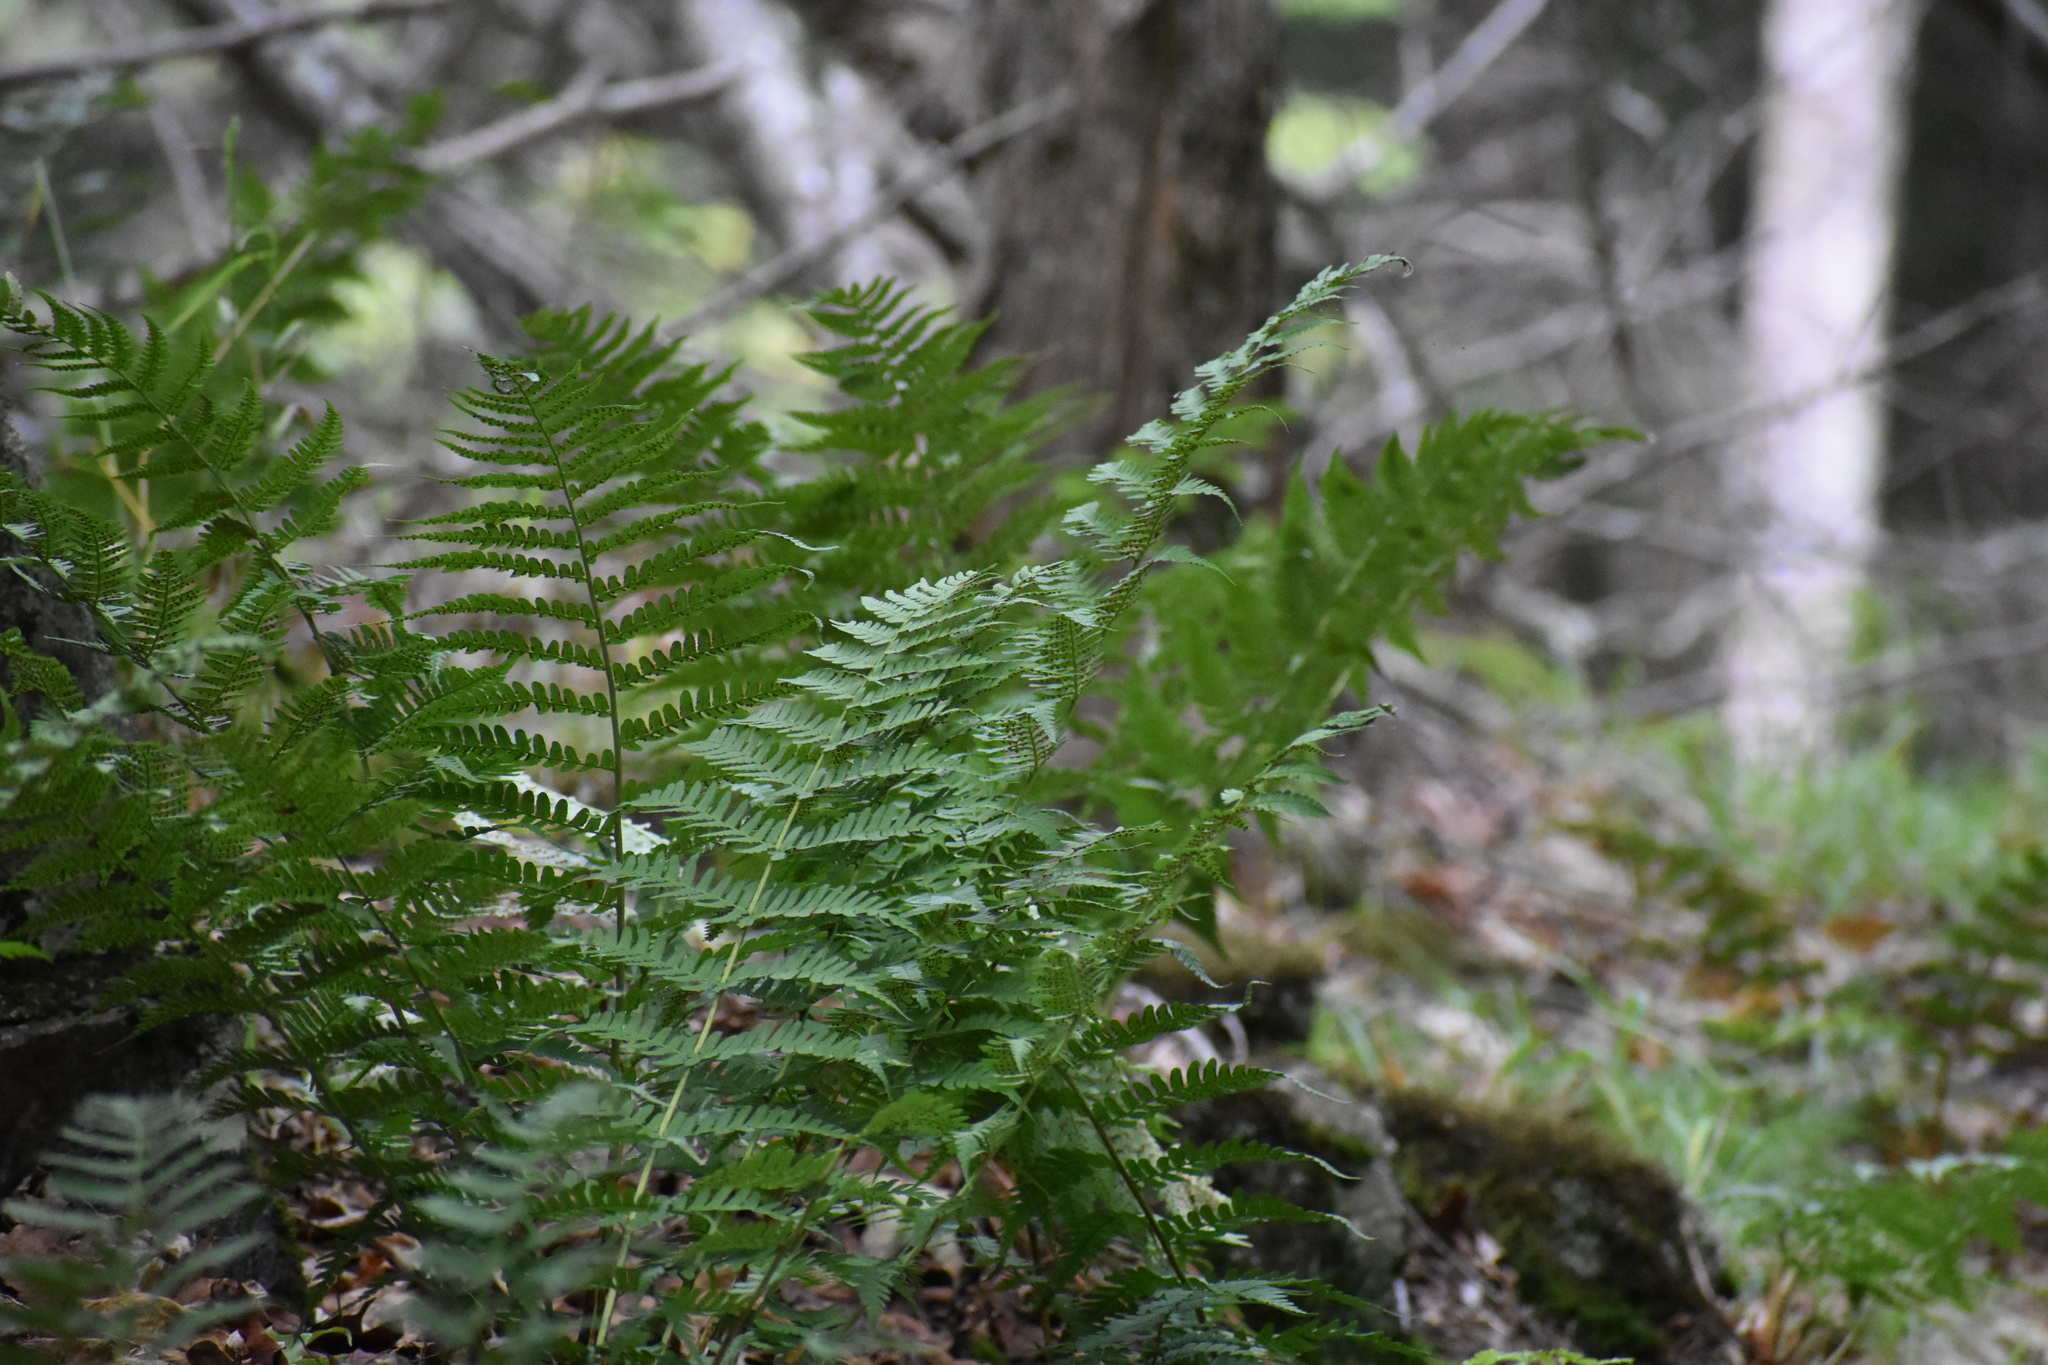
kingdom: Plantae
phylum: Tracheophyta
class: Polypodiopsida
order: Polypodiales
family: Dryopteridaceae
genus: Dryopteris
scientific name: Dryopteris marginalis
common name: Marginal wood fern
